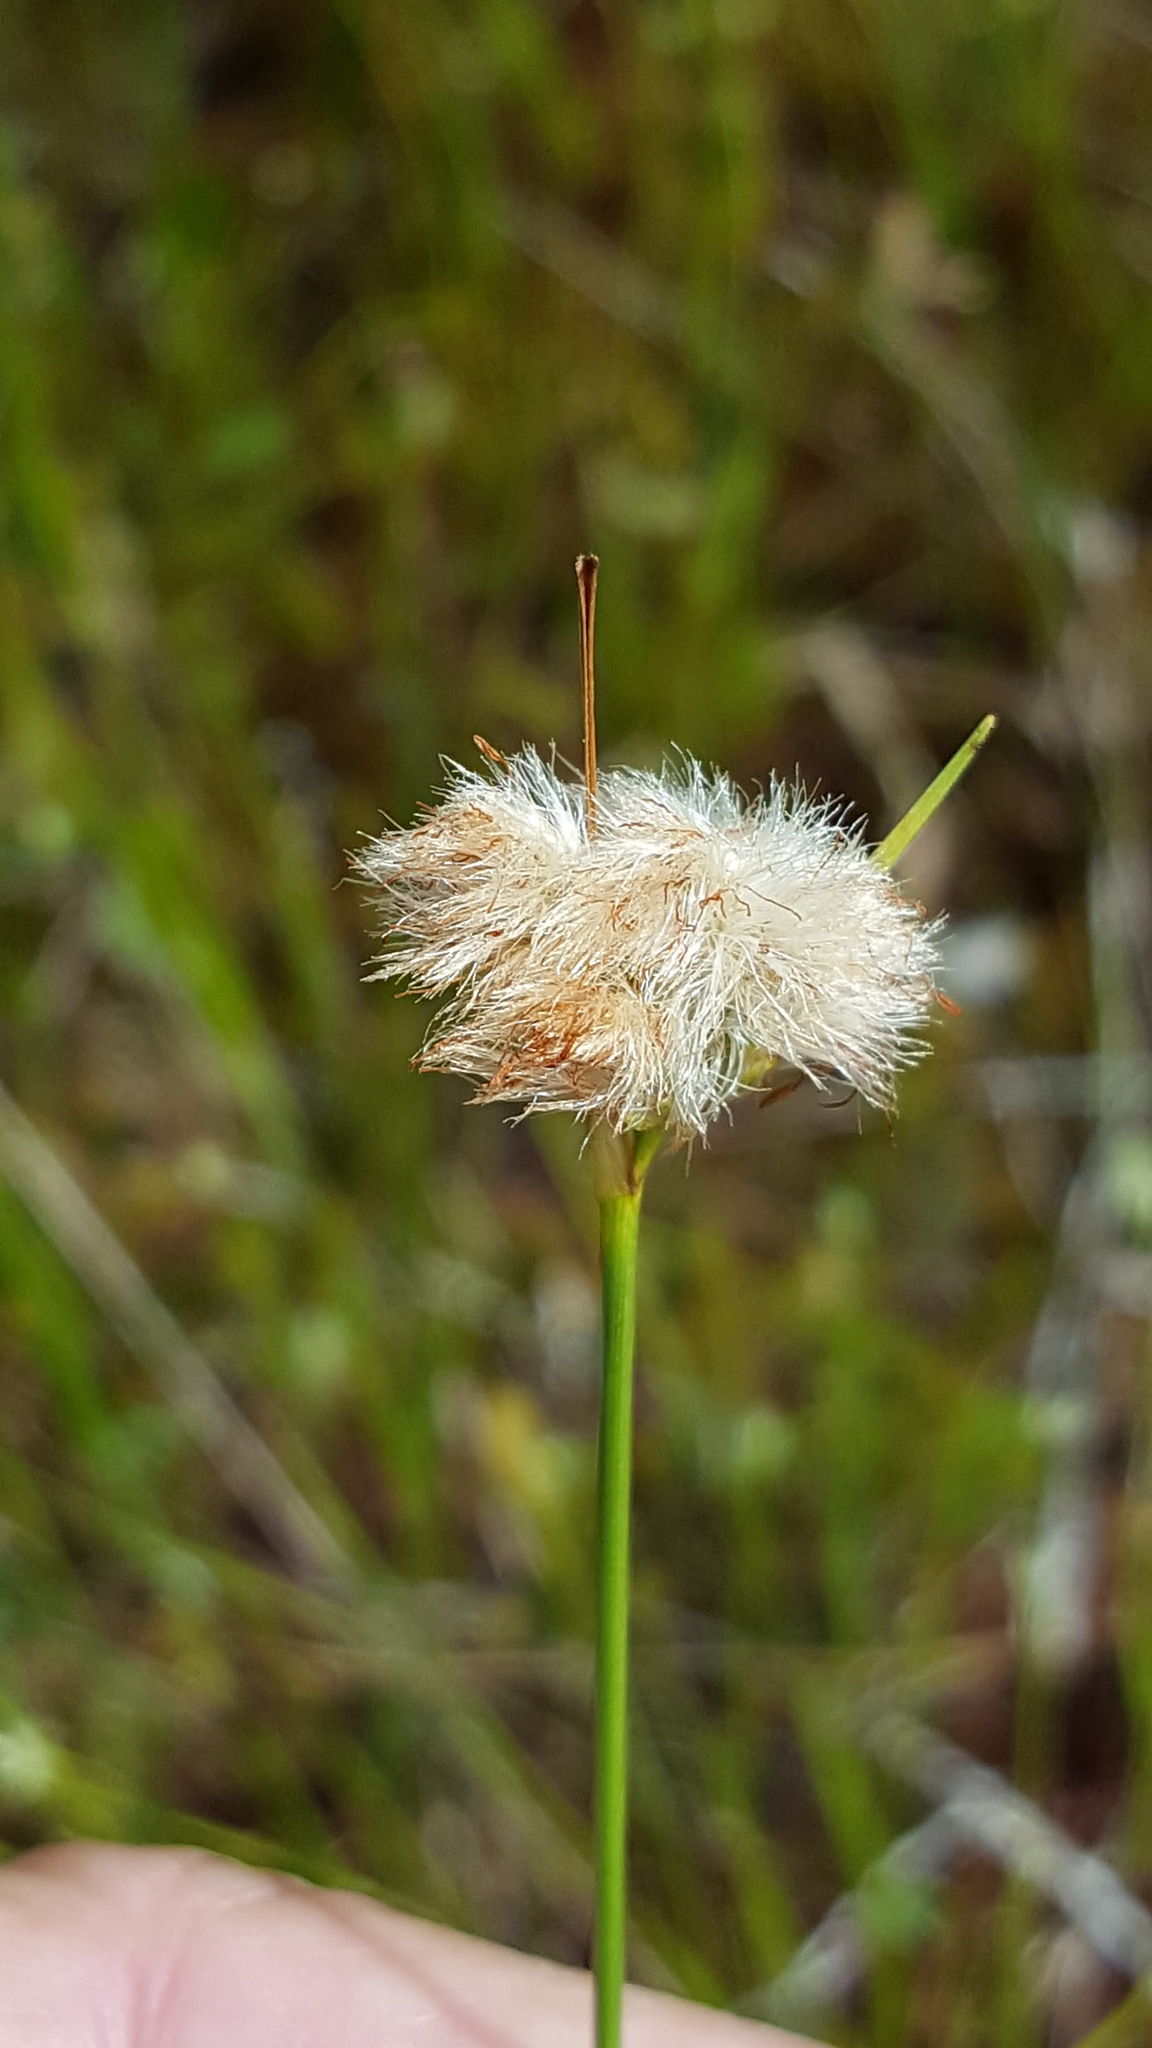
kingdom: Plantae
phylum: Tracheophyta
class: Liliopsida
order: Poales
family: Cyperaceae
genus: Eriophorum
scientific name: Eriophorum virginicum
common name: Tawny cottongrass
